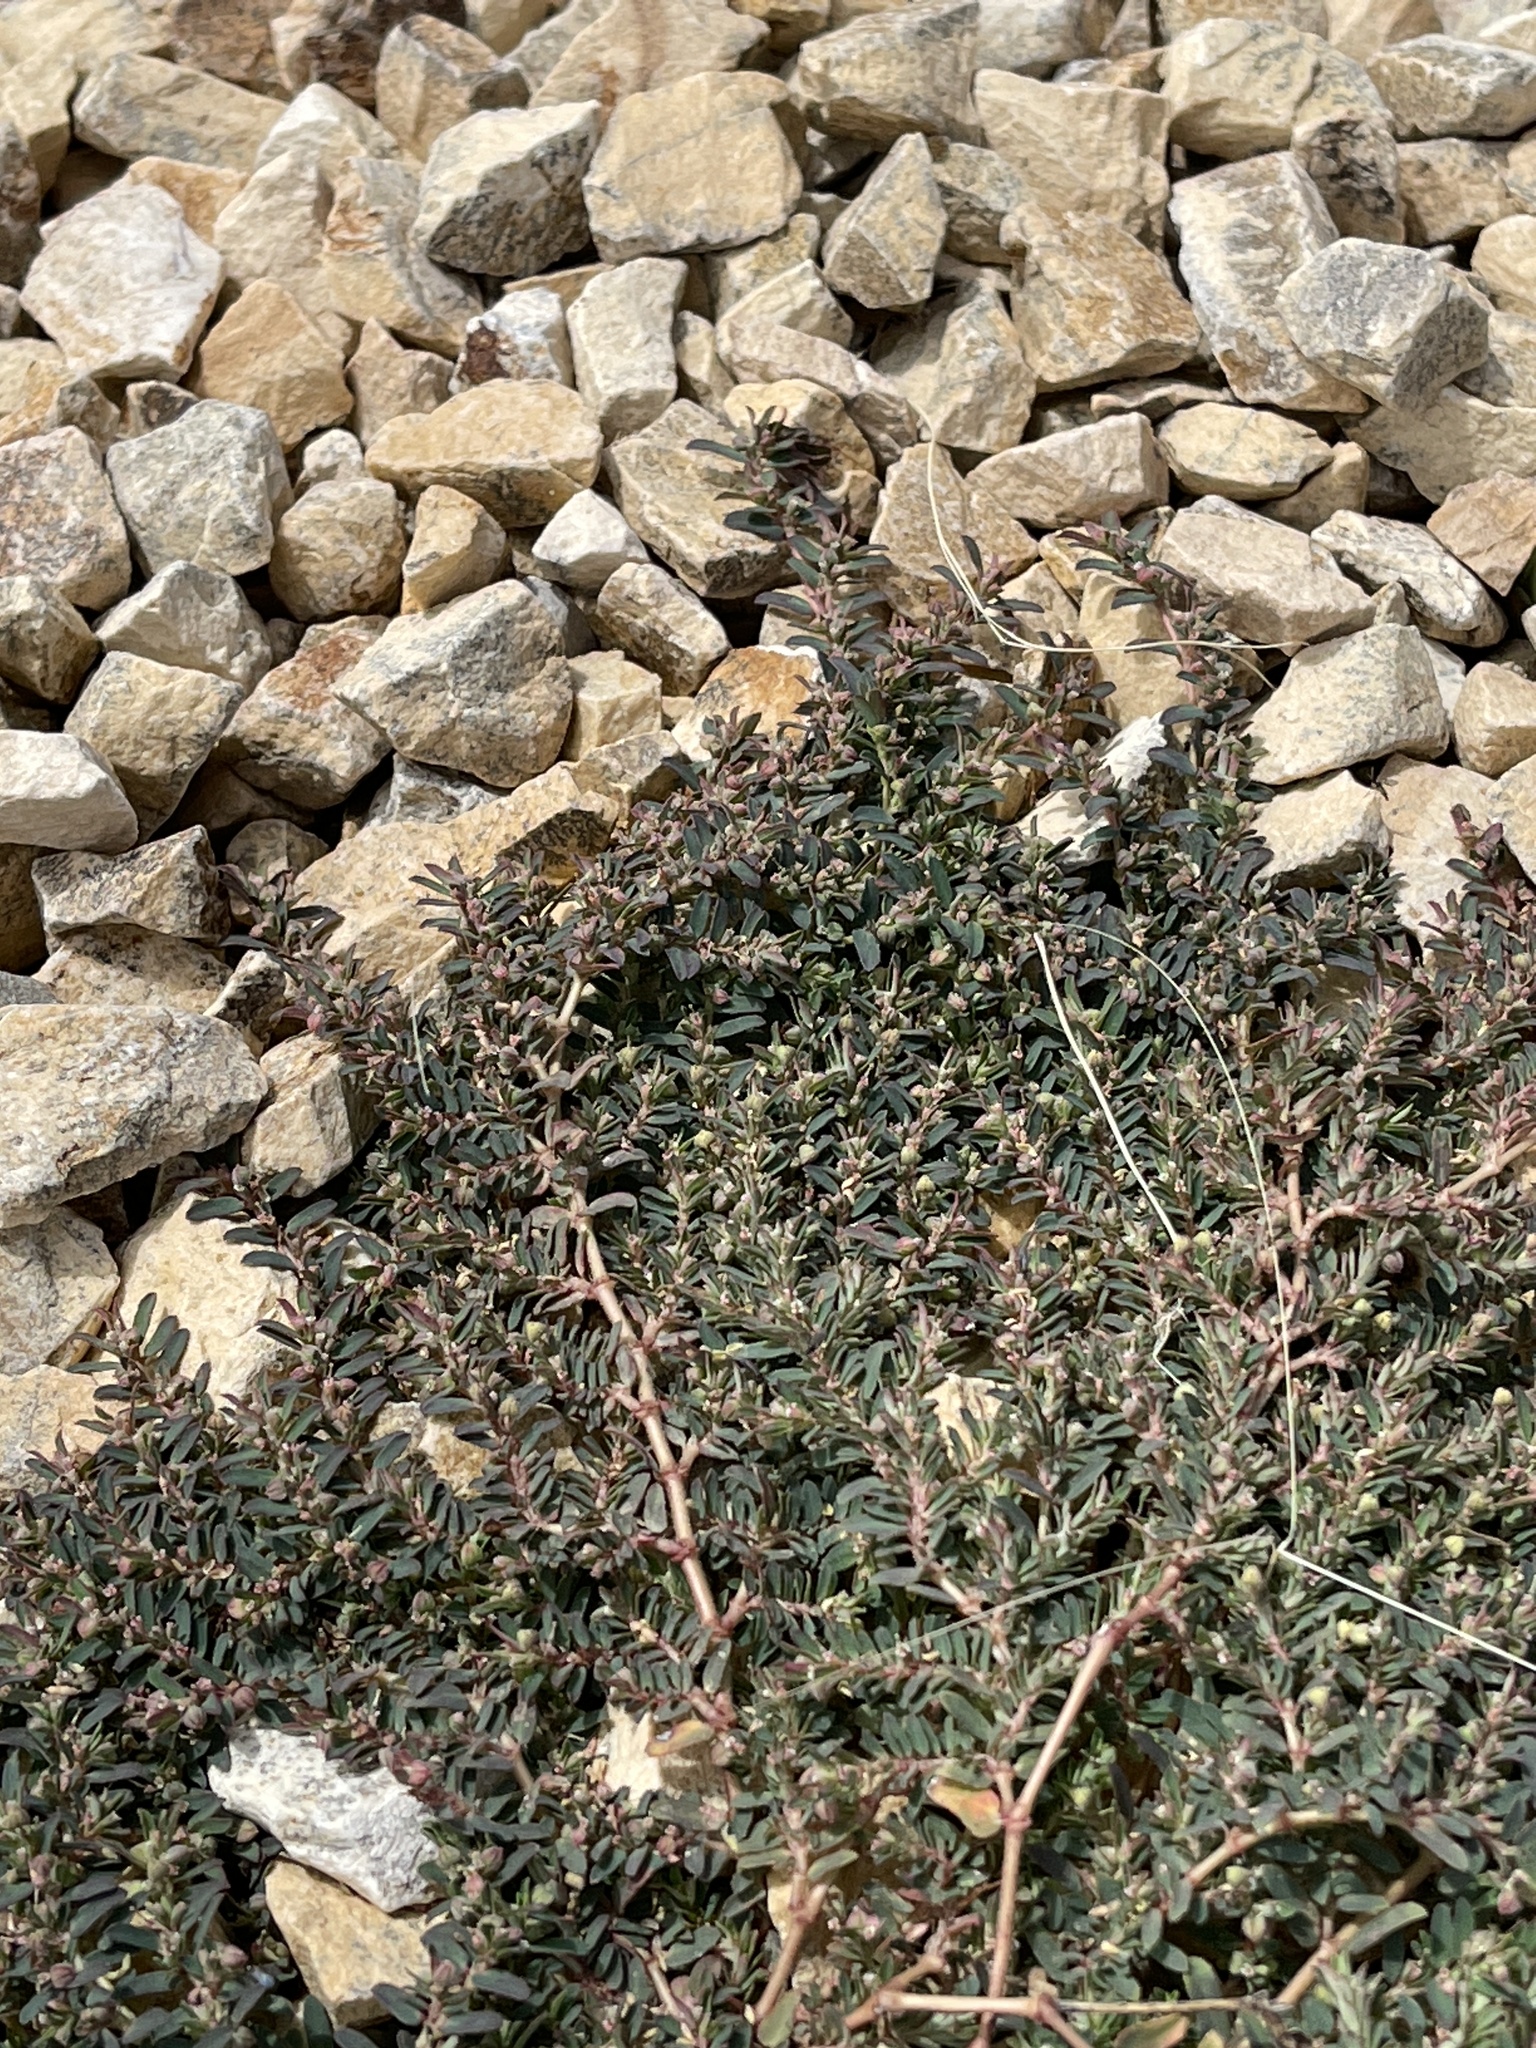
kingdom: Plantae
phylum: Tracheophyta
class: Magnoliopsida
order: Malpighiales
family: Euphorbiaceae
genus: Euphorbia
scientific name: Euphorbia maculata
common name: Spotted spurge
